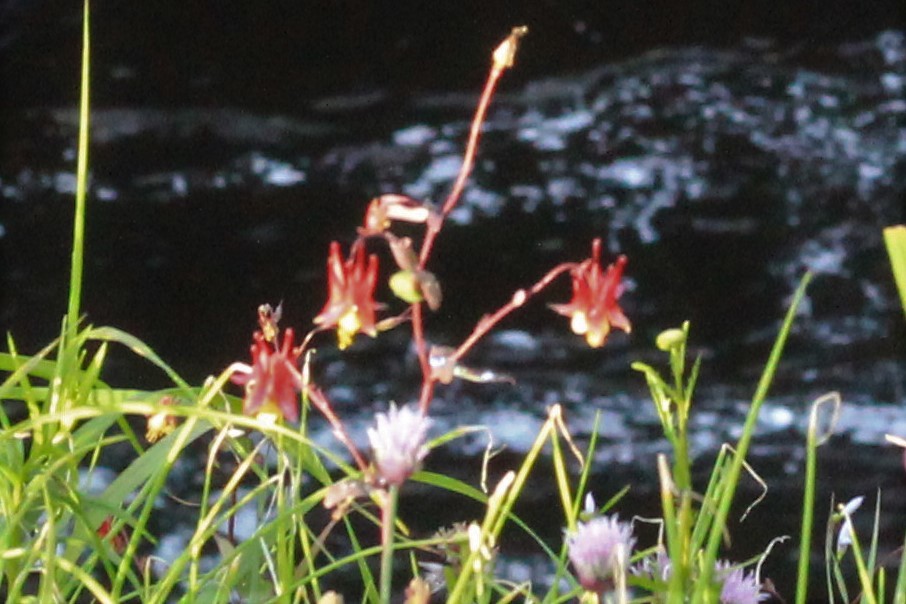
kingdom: Plantae
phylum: Tracheophyta
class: Magnoliopsida
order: Ranunculales
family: Ranunculaceae
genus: Aquilegia
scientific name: Aquilegia canadensis
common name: American columbine
